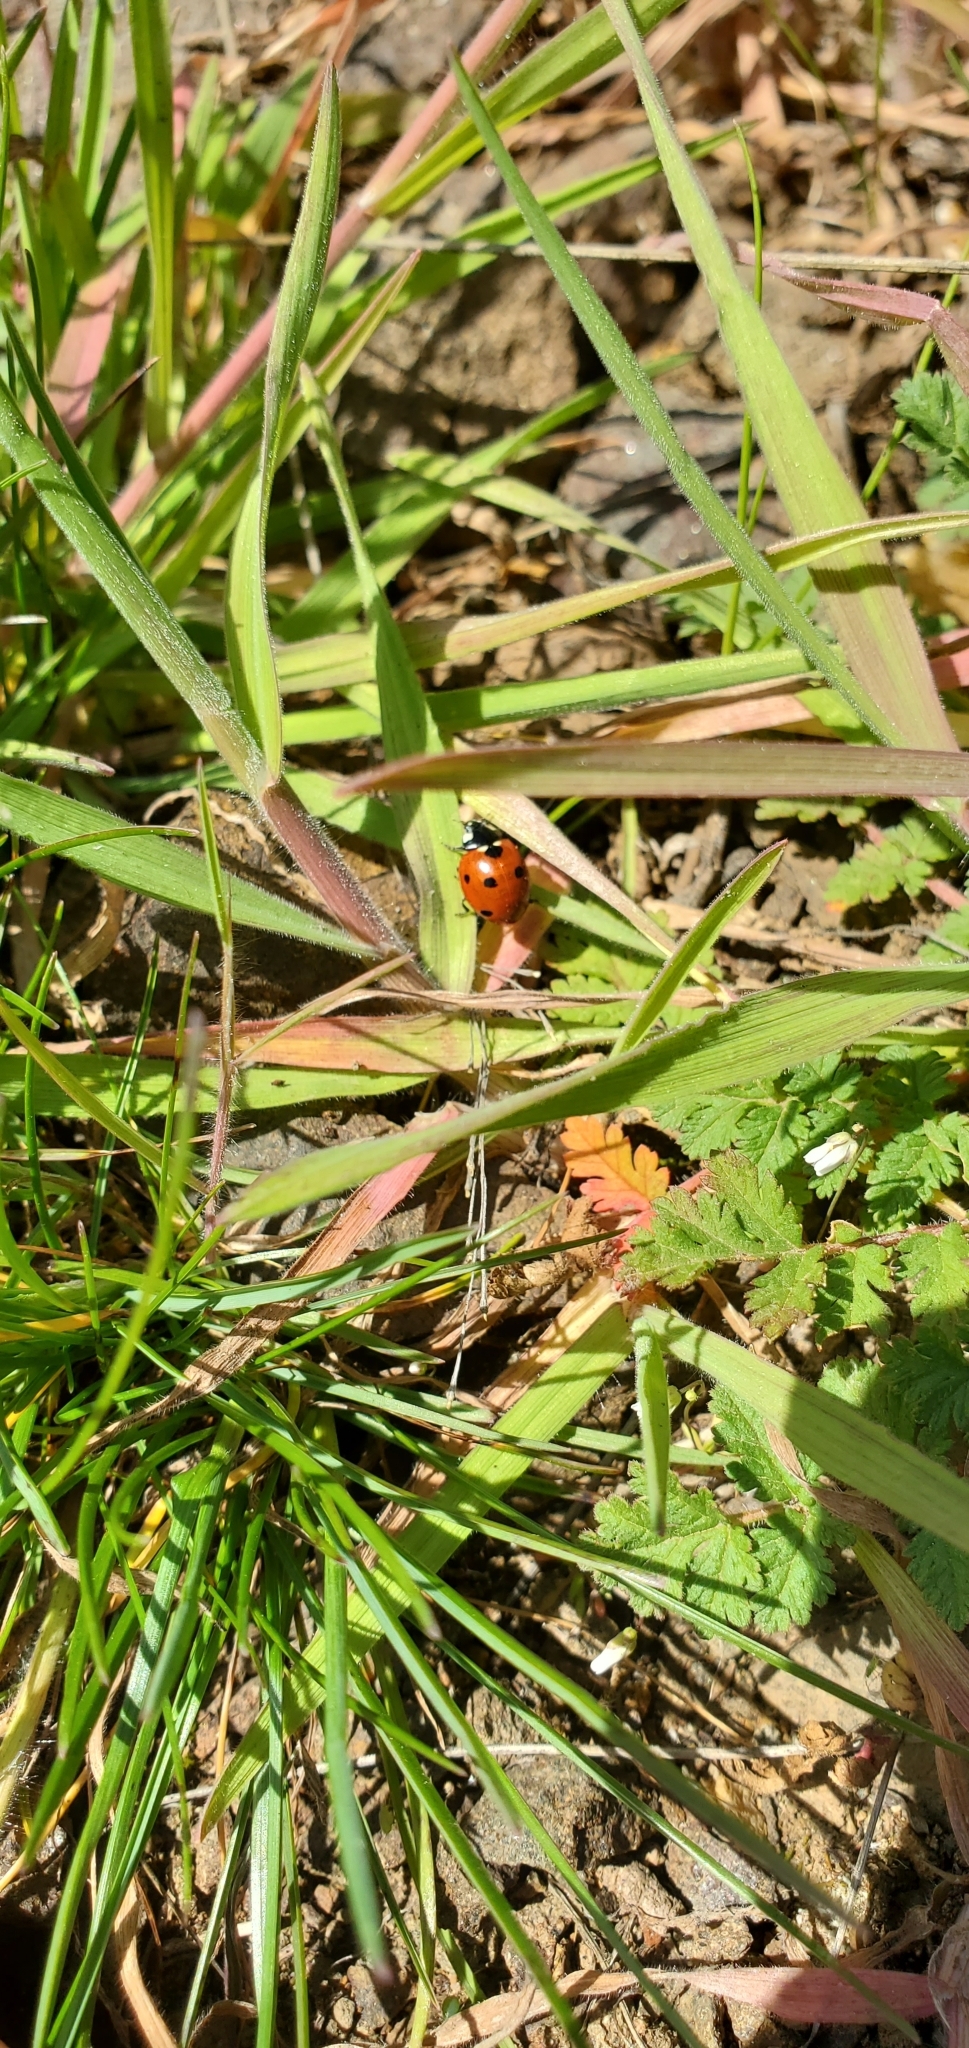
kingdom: Animalia
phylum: Arthropoda
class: Insecta
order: Coleoptera
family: Coccinellidae
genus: Coccinella
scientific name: Coccinella septempunctata
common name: Sevenspotted lady beetle
